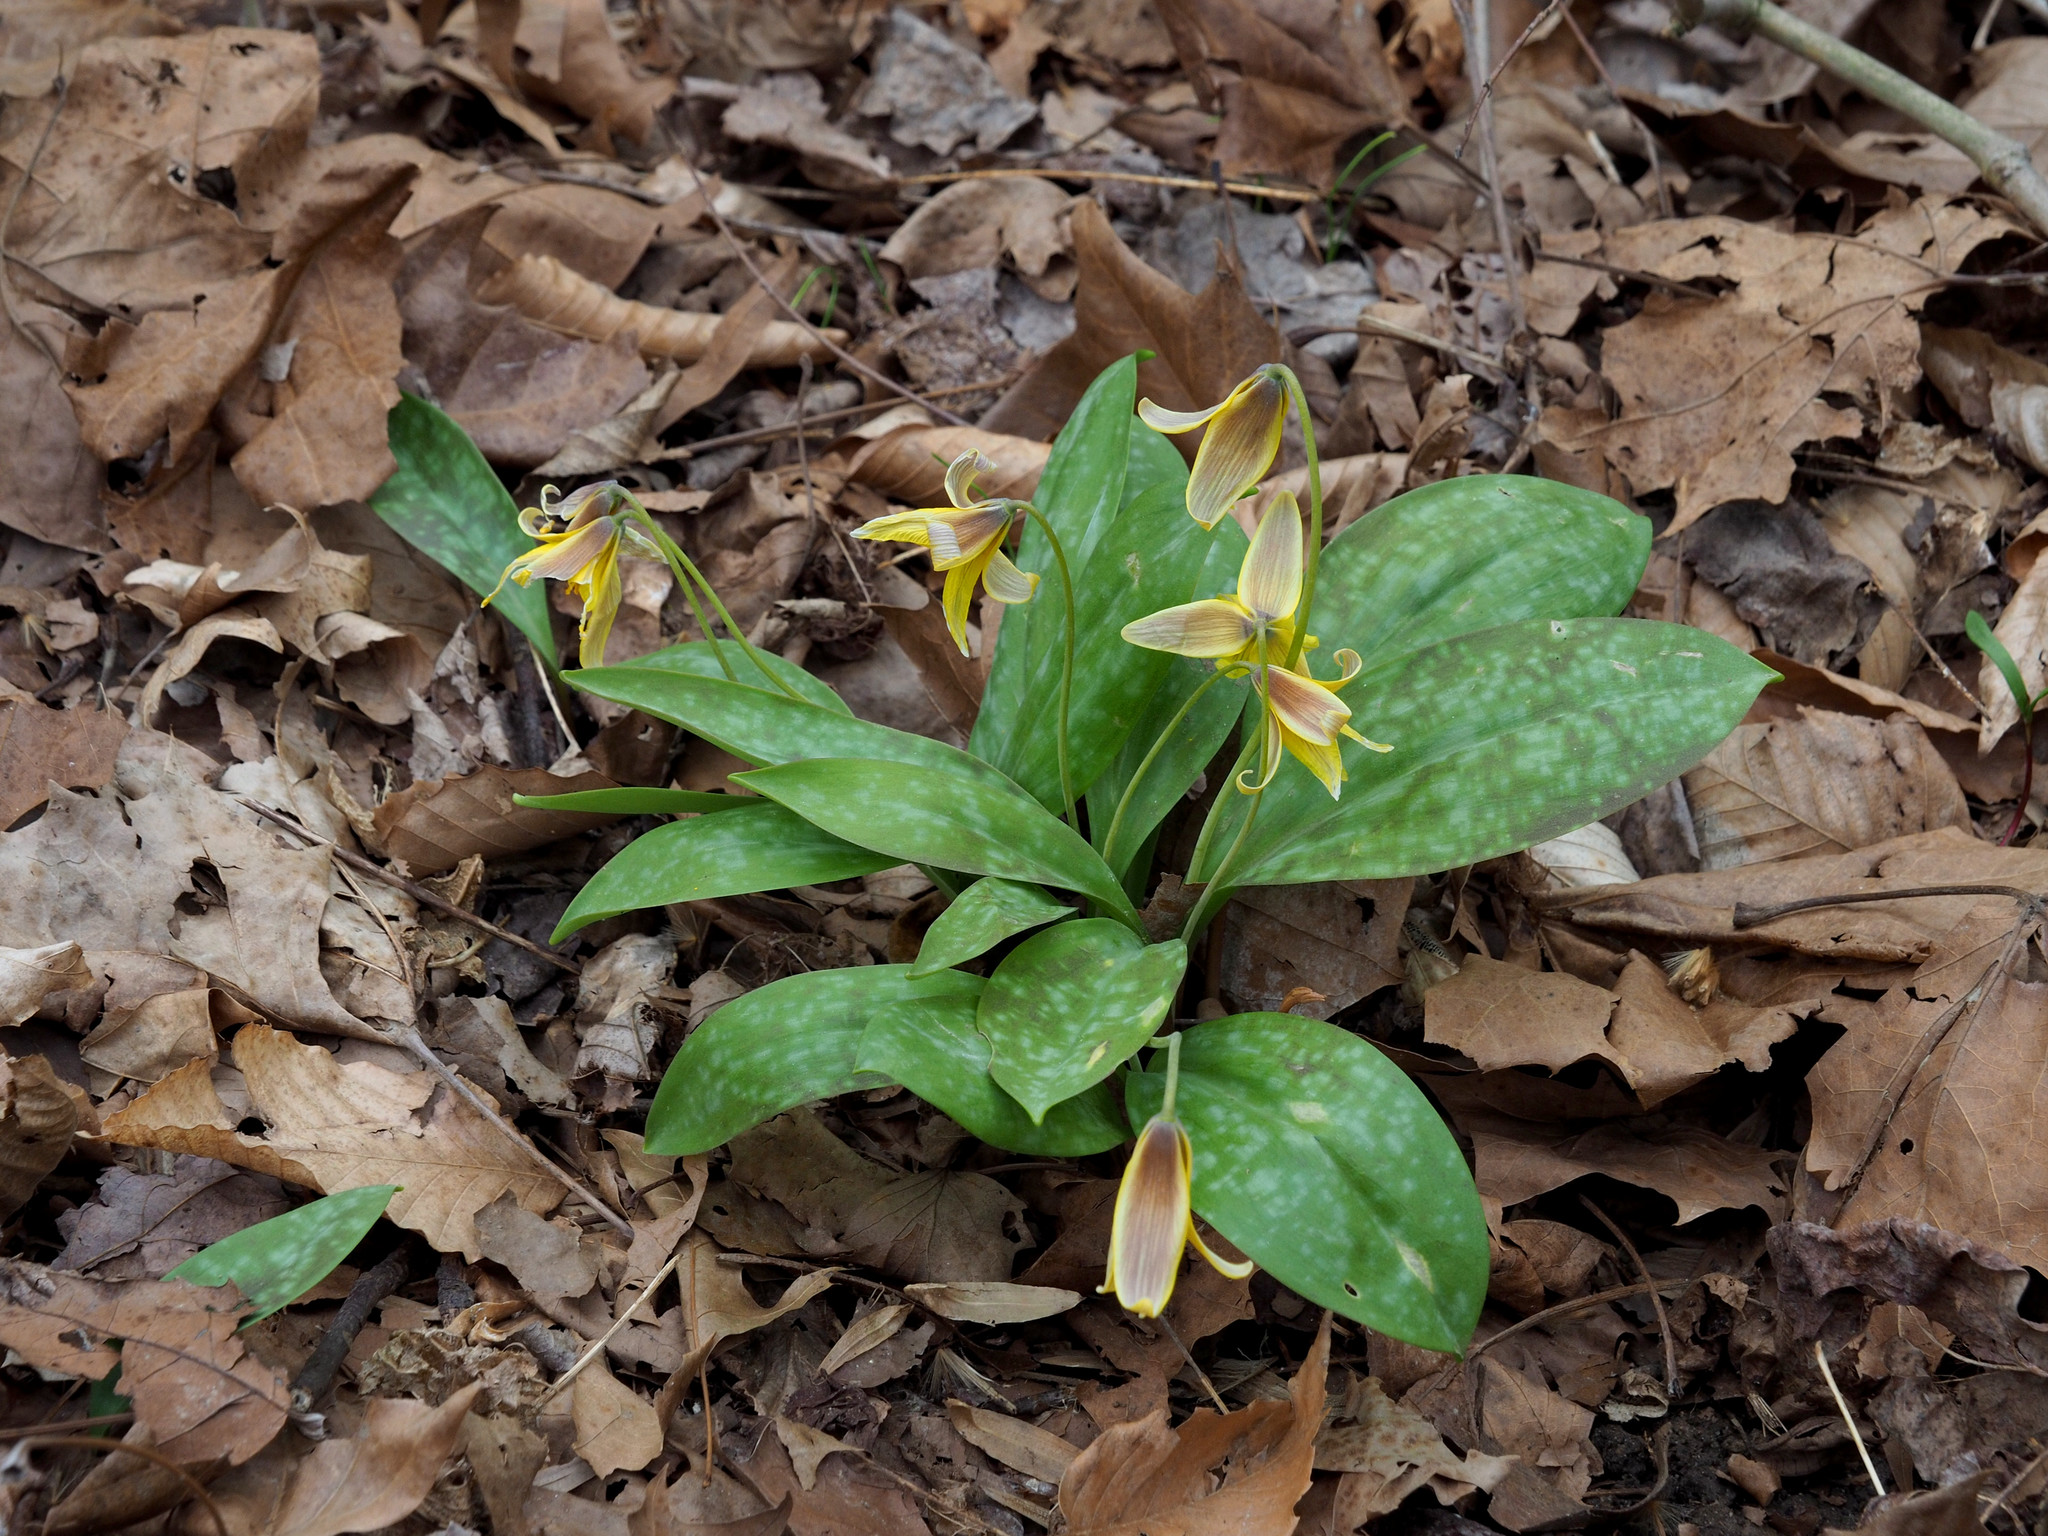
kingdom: Plantae
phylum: Tracheophyta
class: Liliopsida
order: Liliales
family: Liliaceae
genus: Erythronium
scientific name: Erythronium americanum
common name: Yellow adder's-tongue
